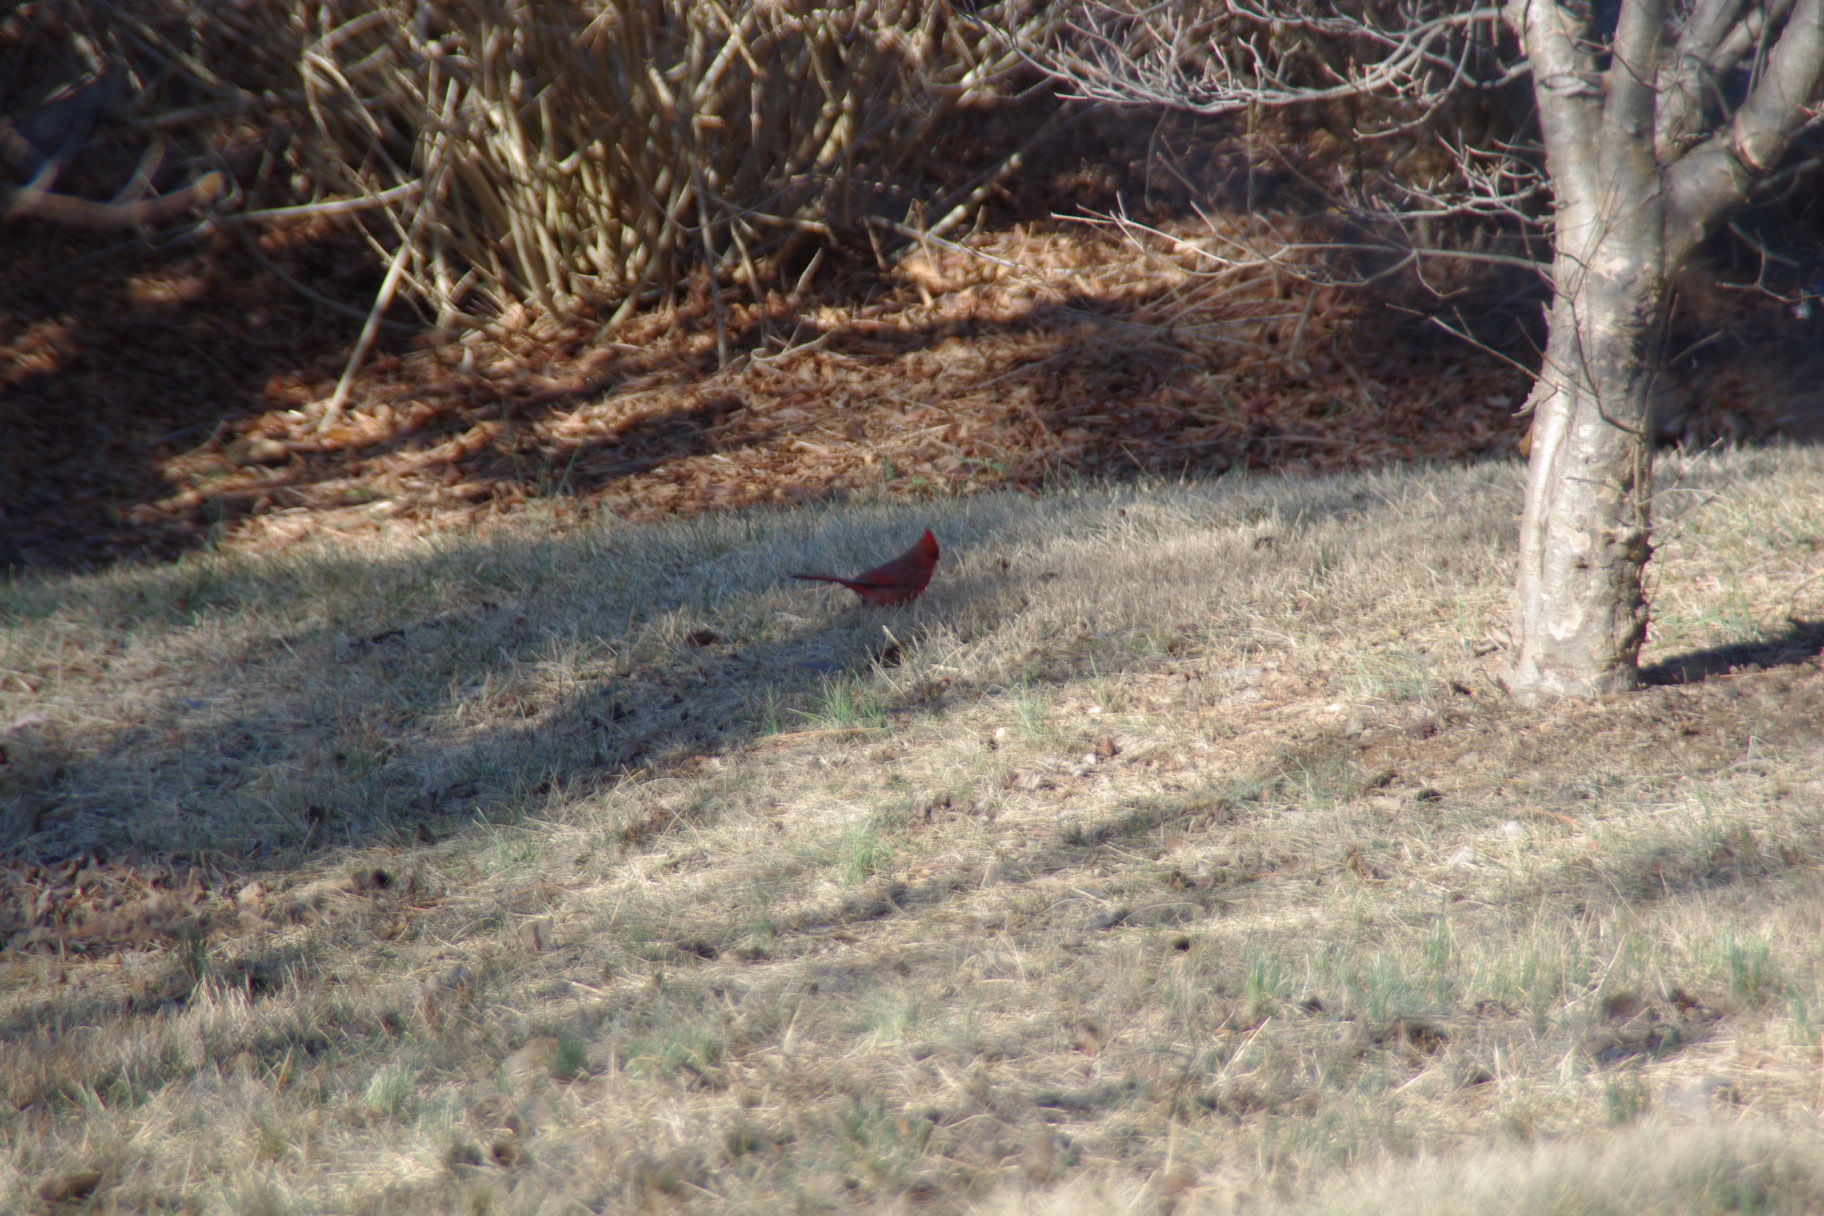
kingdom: Animalia
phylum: Chordata
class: Aves
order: Passeriformes
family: Cardinalidae
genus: Cardinalis
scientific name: Cardinalis cardinalis
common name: Northern cardinal
